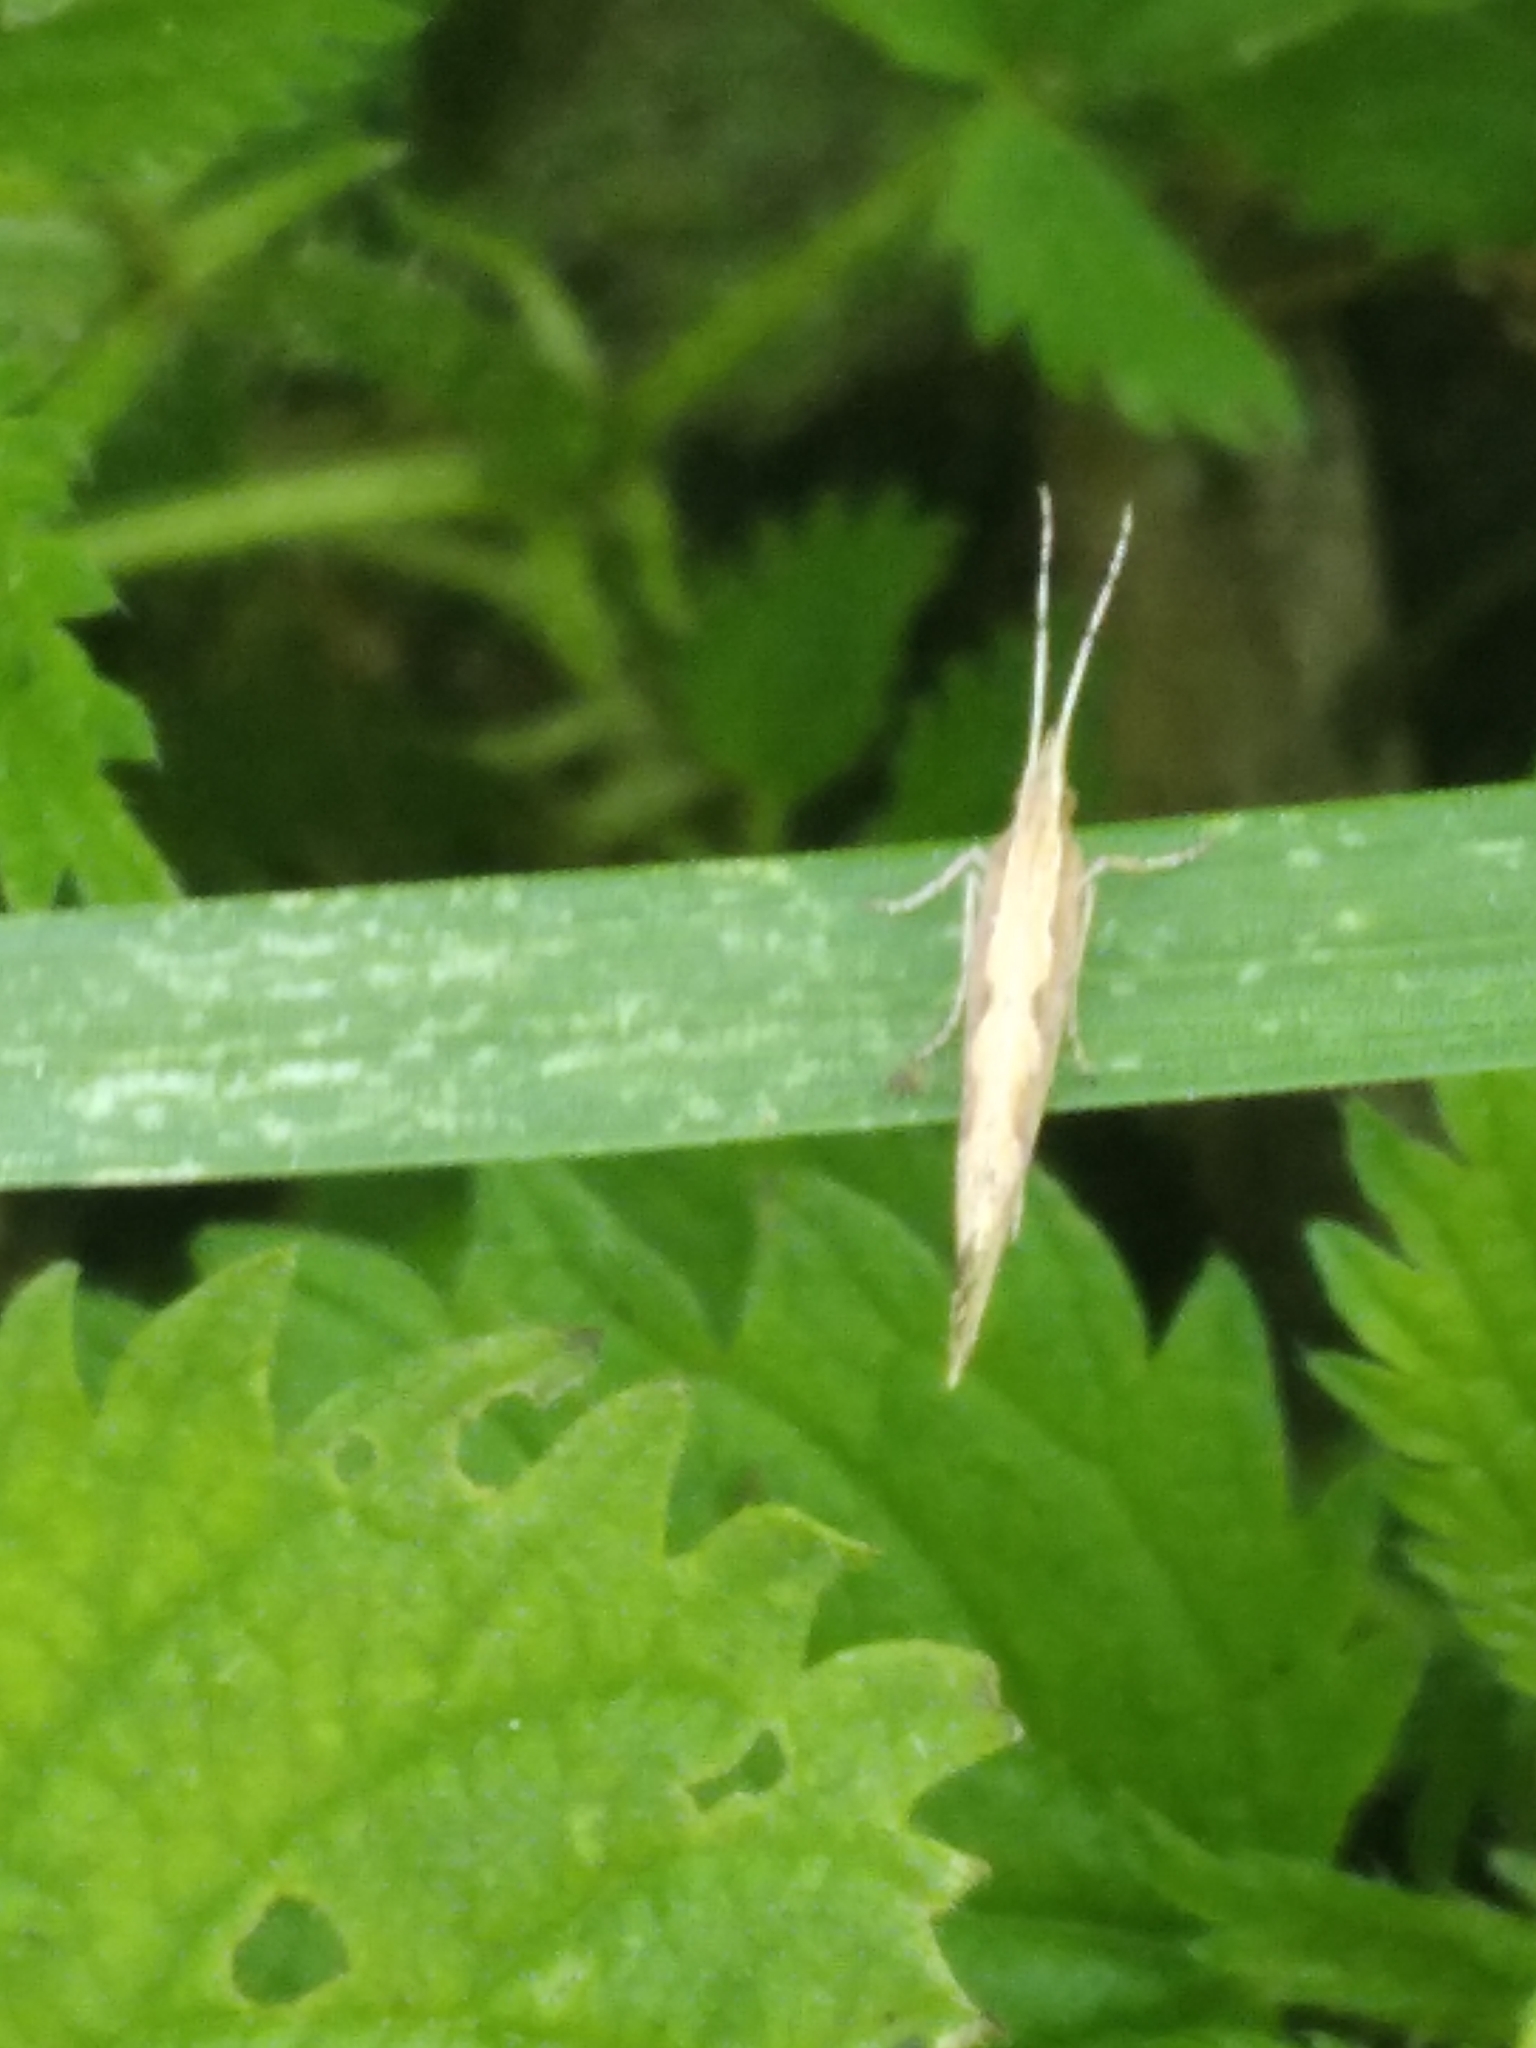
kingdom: Animalia
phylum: Arthropoda
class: Insecta
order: Lepidoptera
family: Plutellidae
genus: Plutella
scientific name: Plutella xylostella
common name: Diamond-back moth
